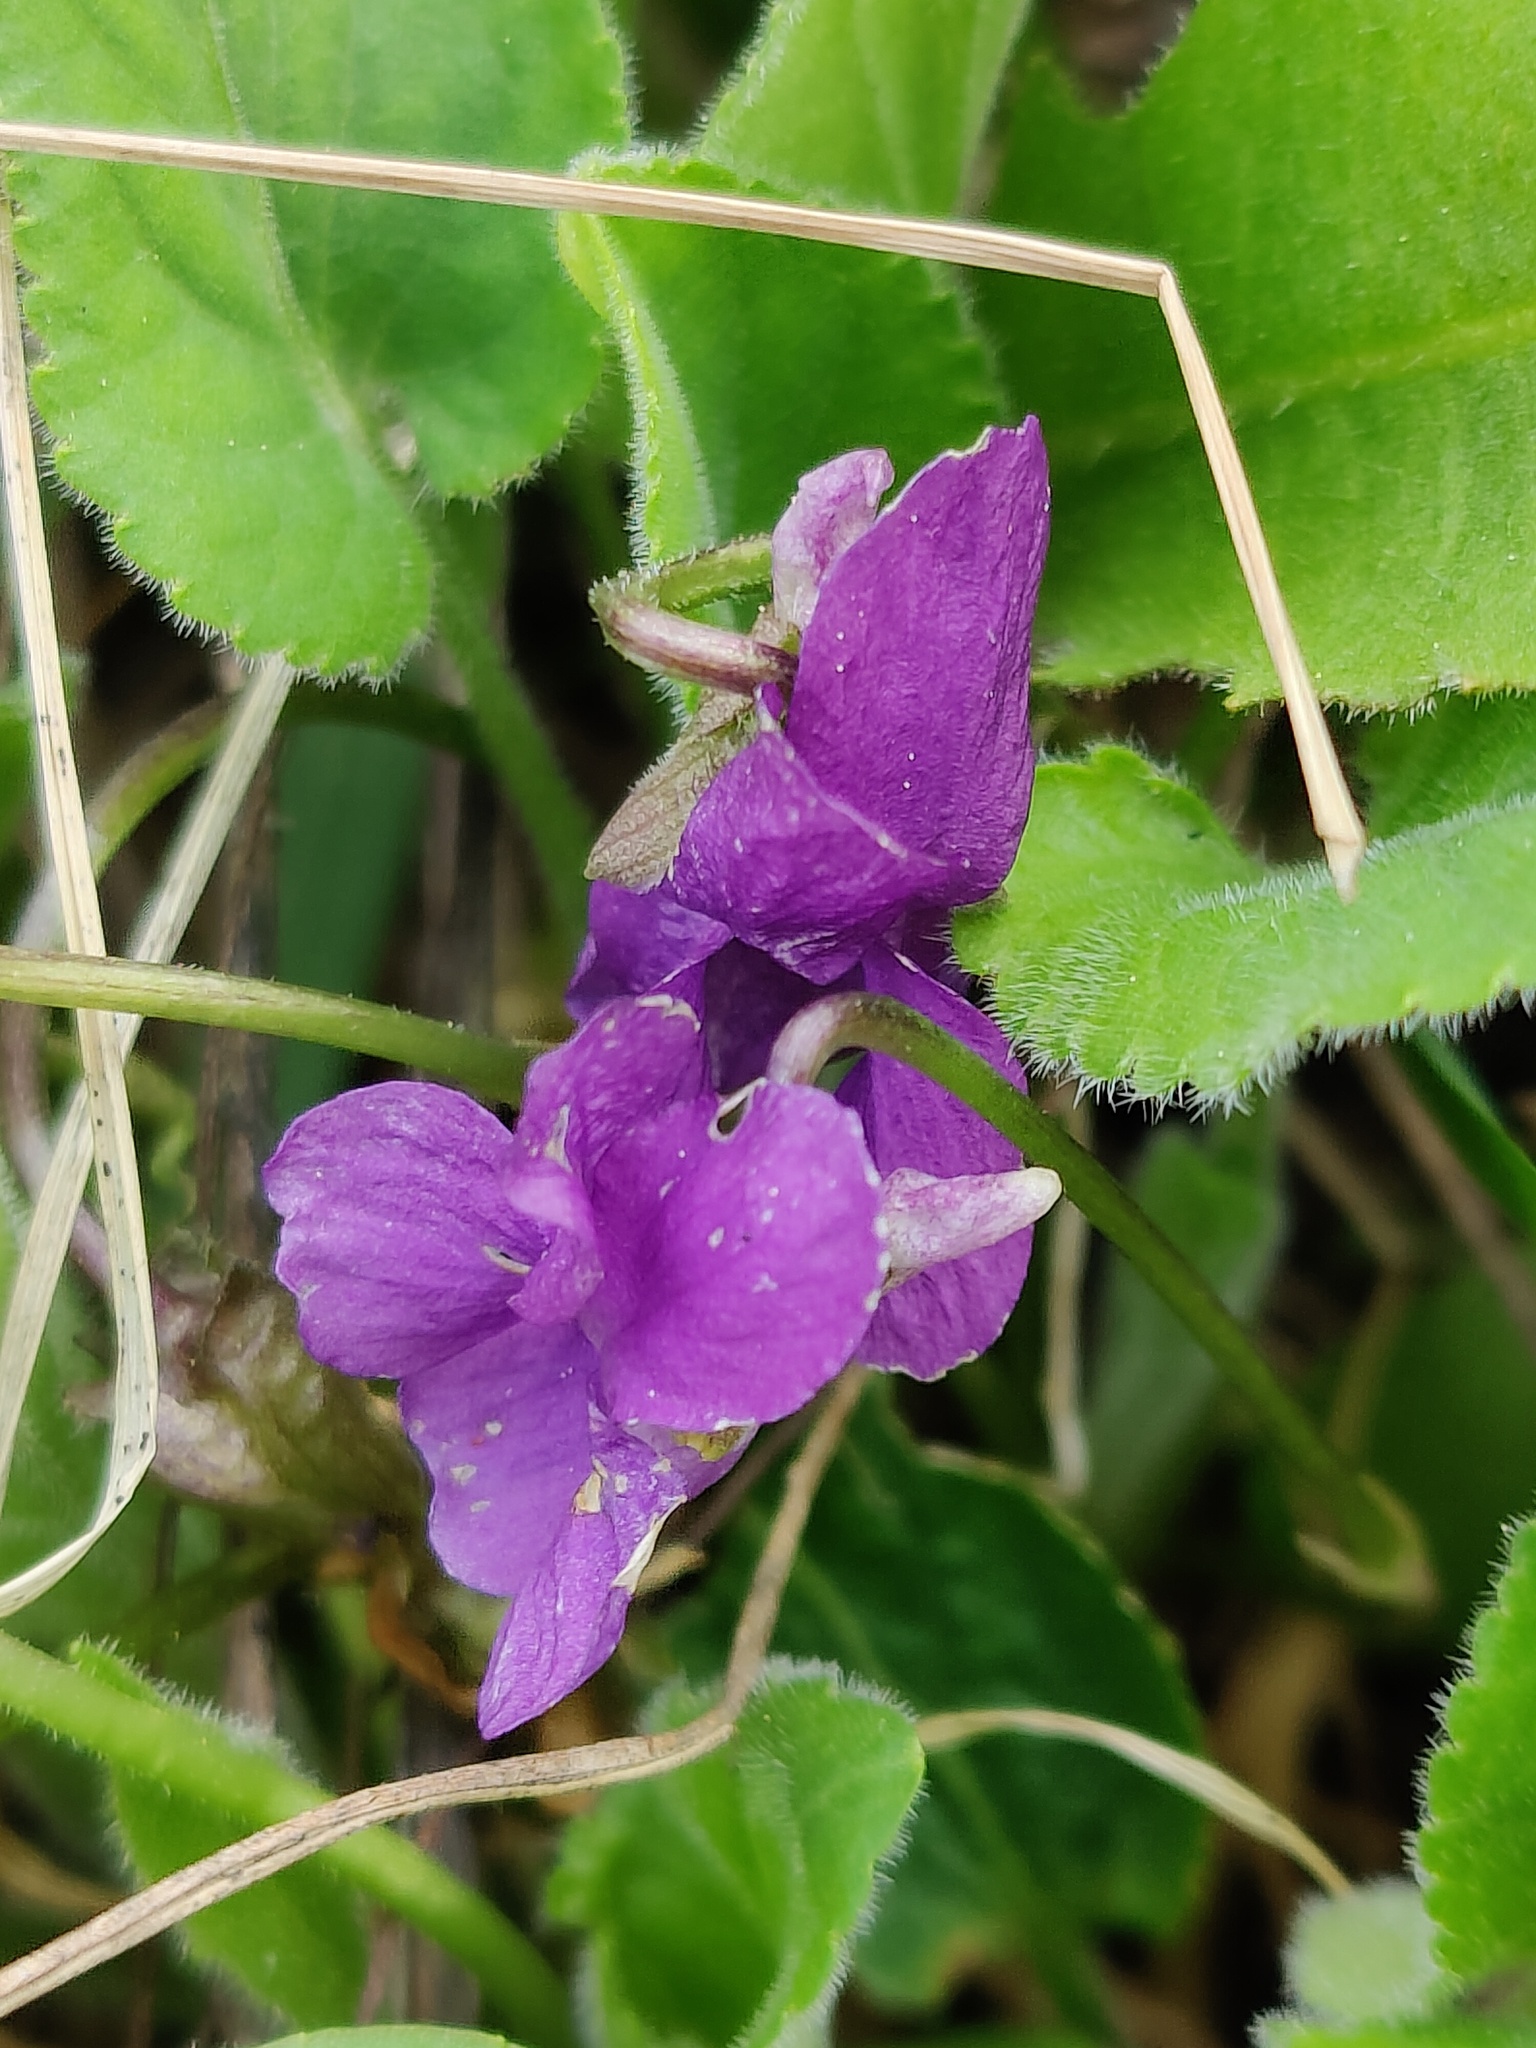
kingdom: Plantae
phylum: Tracheophyta
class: Magnoliopsida
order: Malpighiales
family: Violaceae
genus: Viola
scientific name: Viola hirta
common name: Hairy violet
